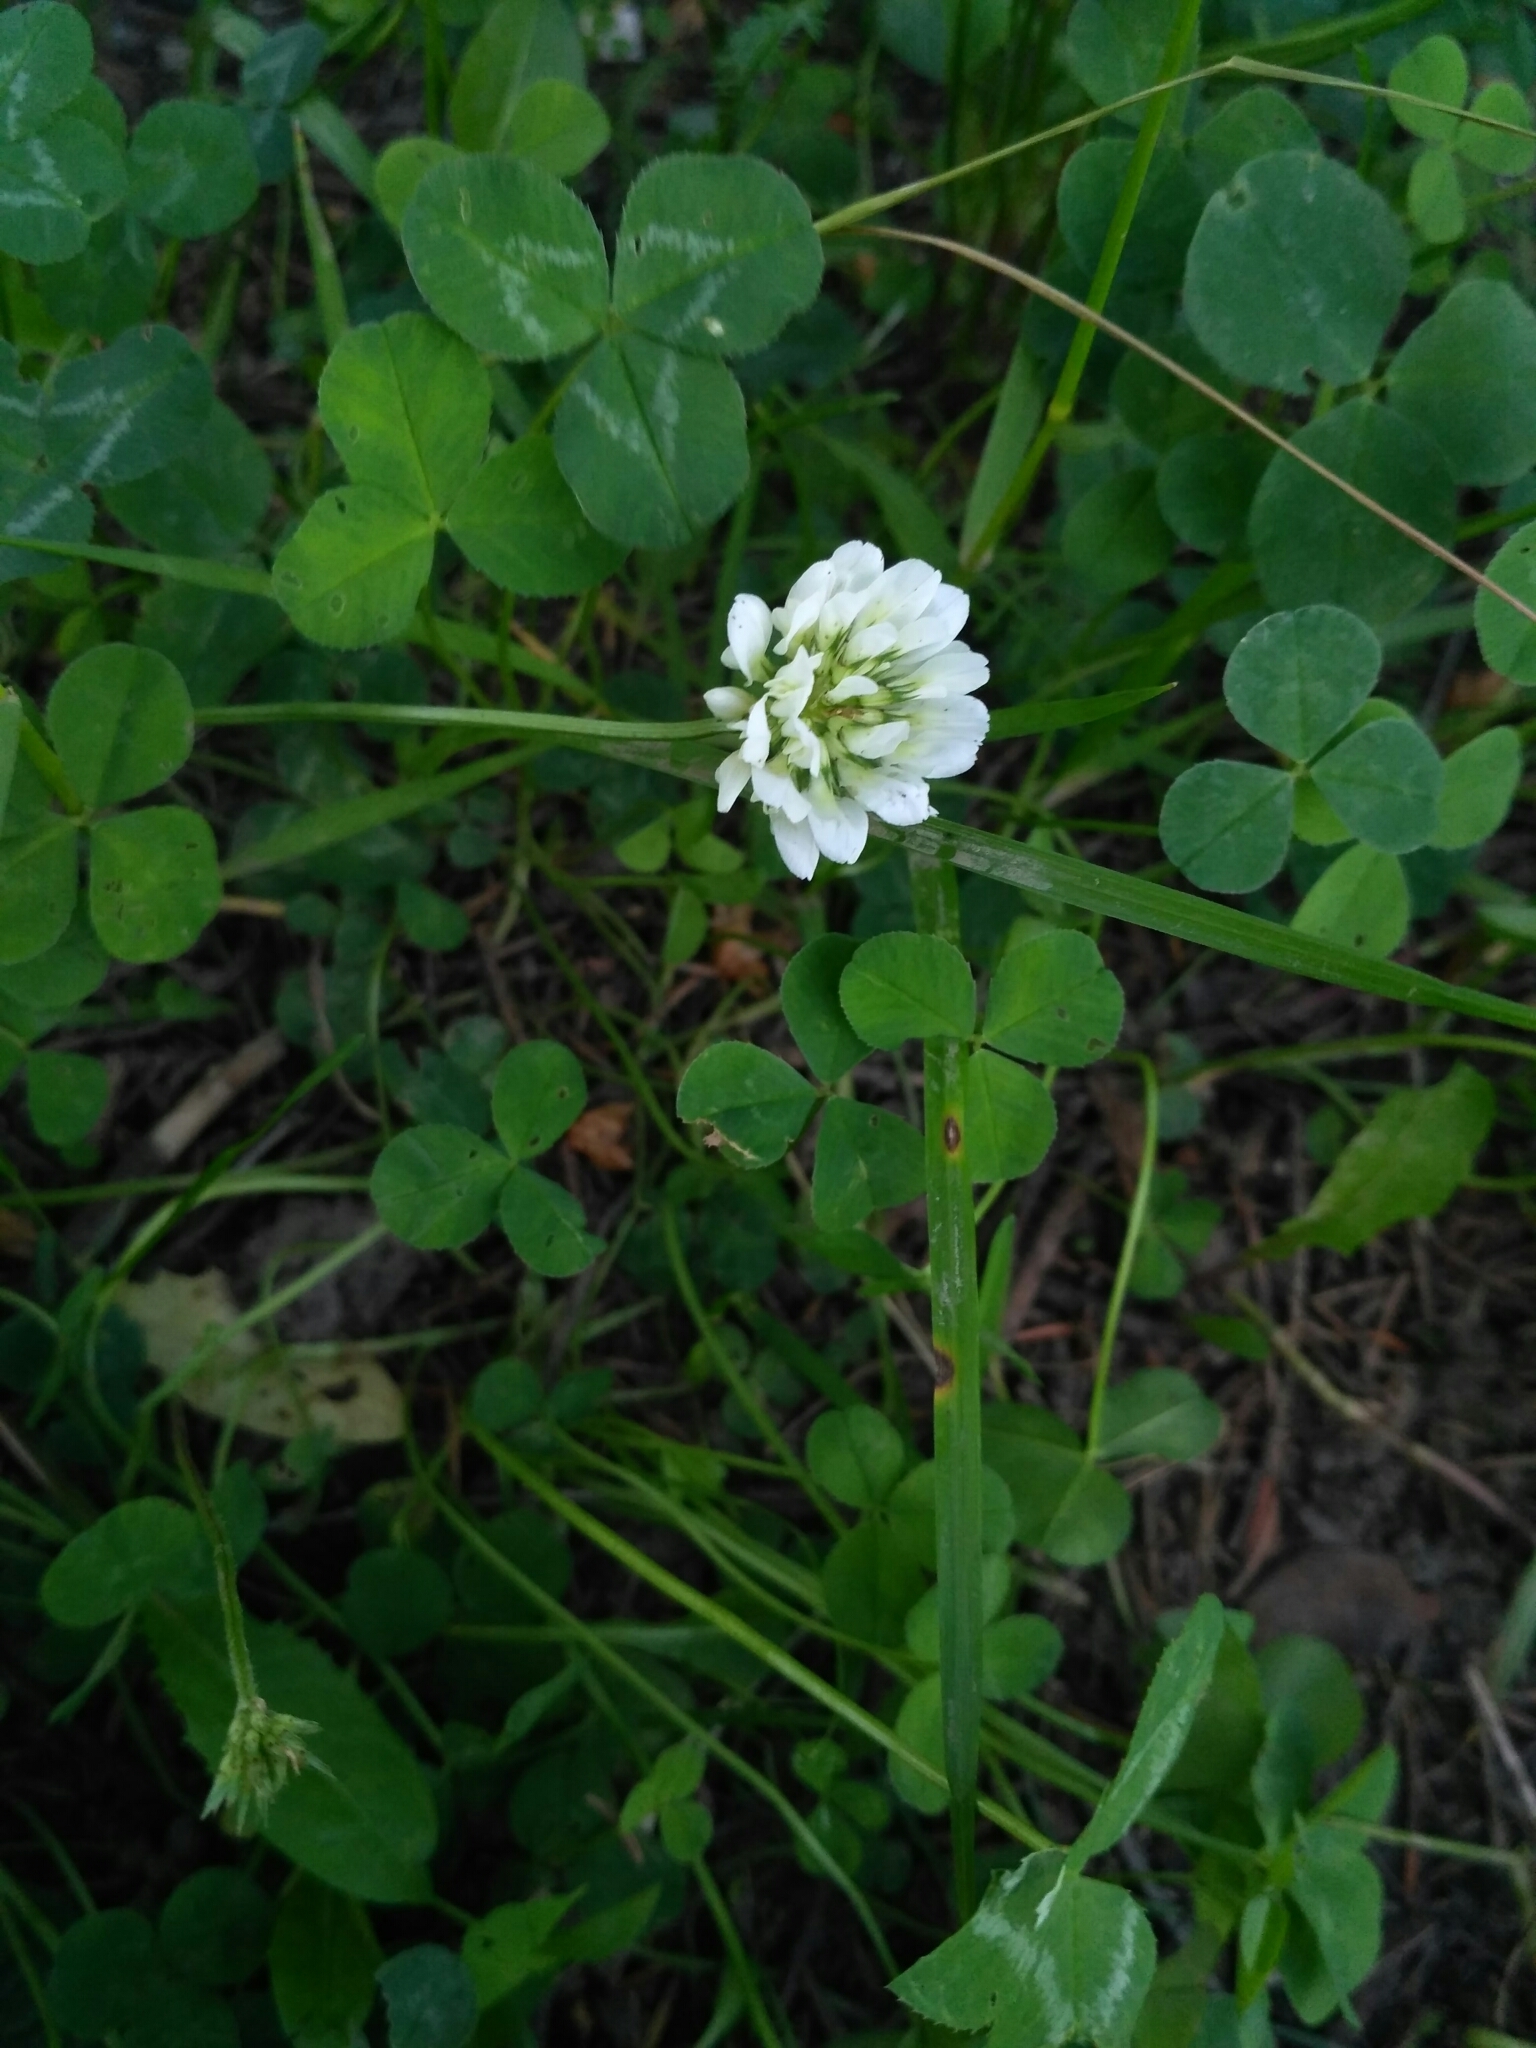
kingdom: Plantae
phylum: Tracheophyta
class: Magnoliopsida
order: Fabales
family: Fabaceae
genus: Trifolium
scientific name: Trifolium repens
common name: White clover
